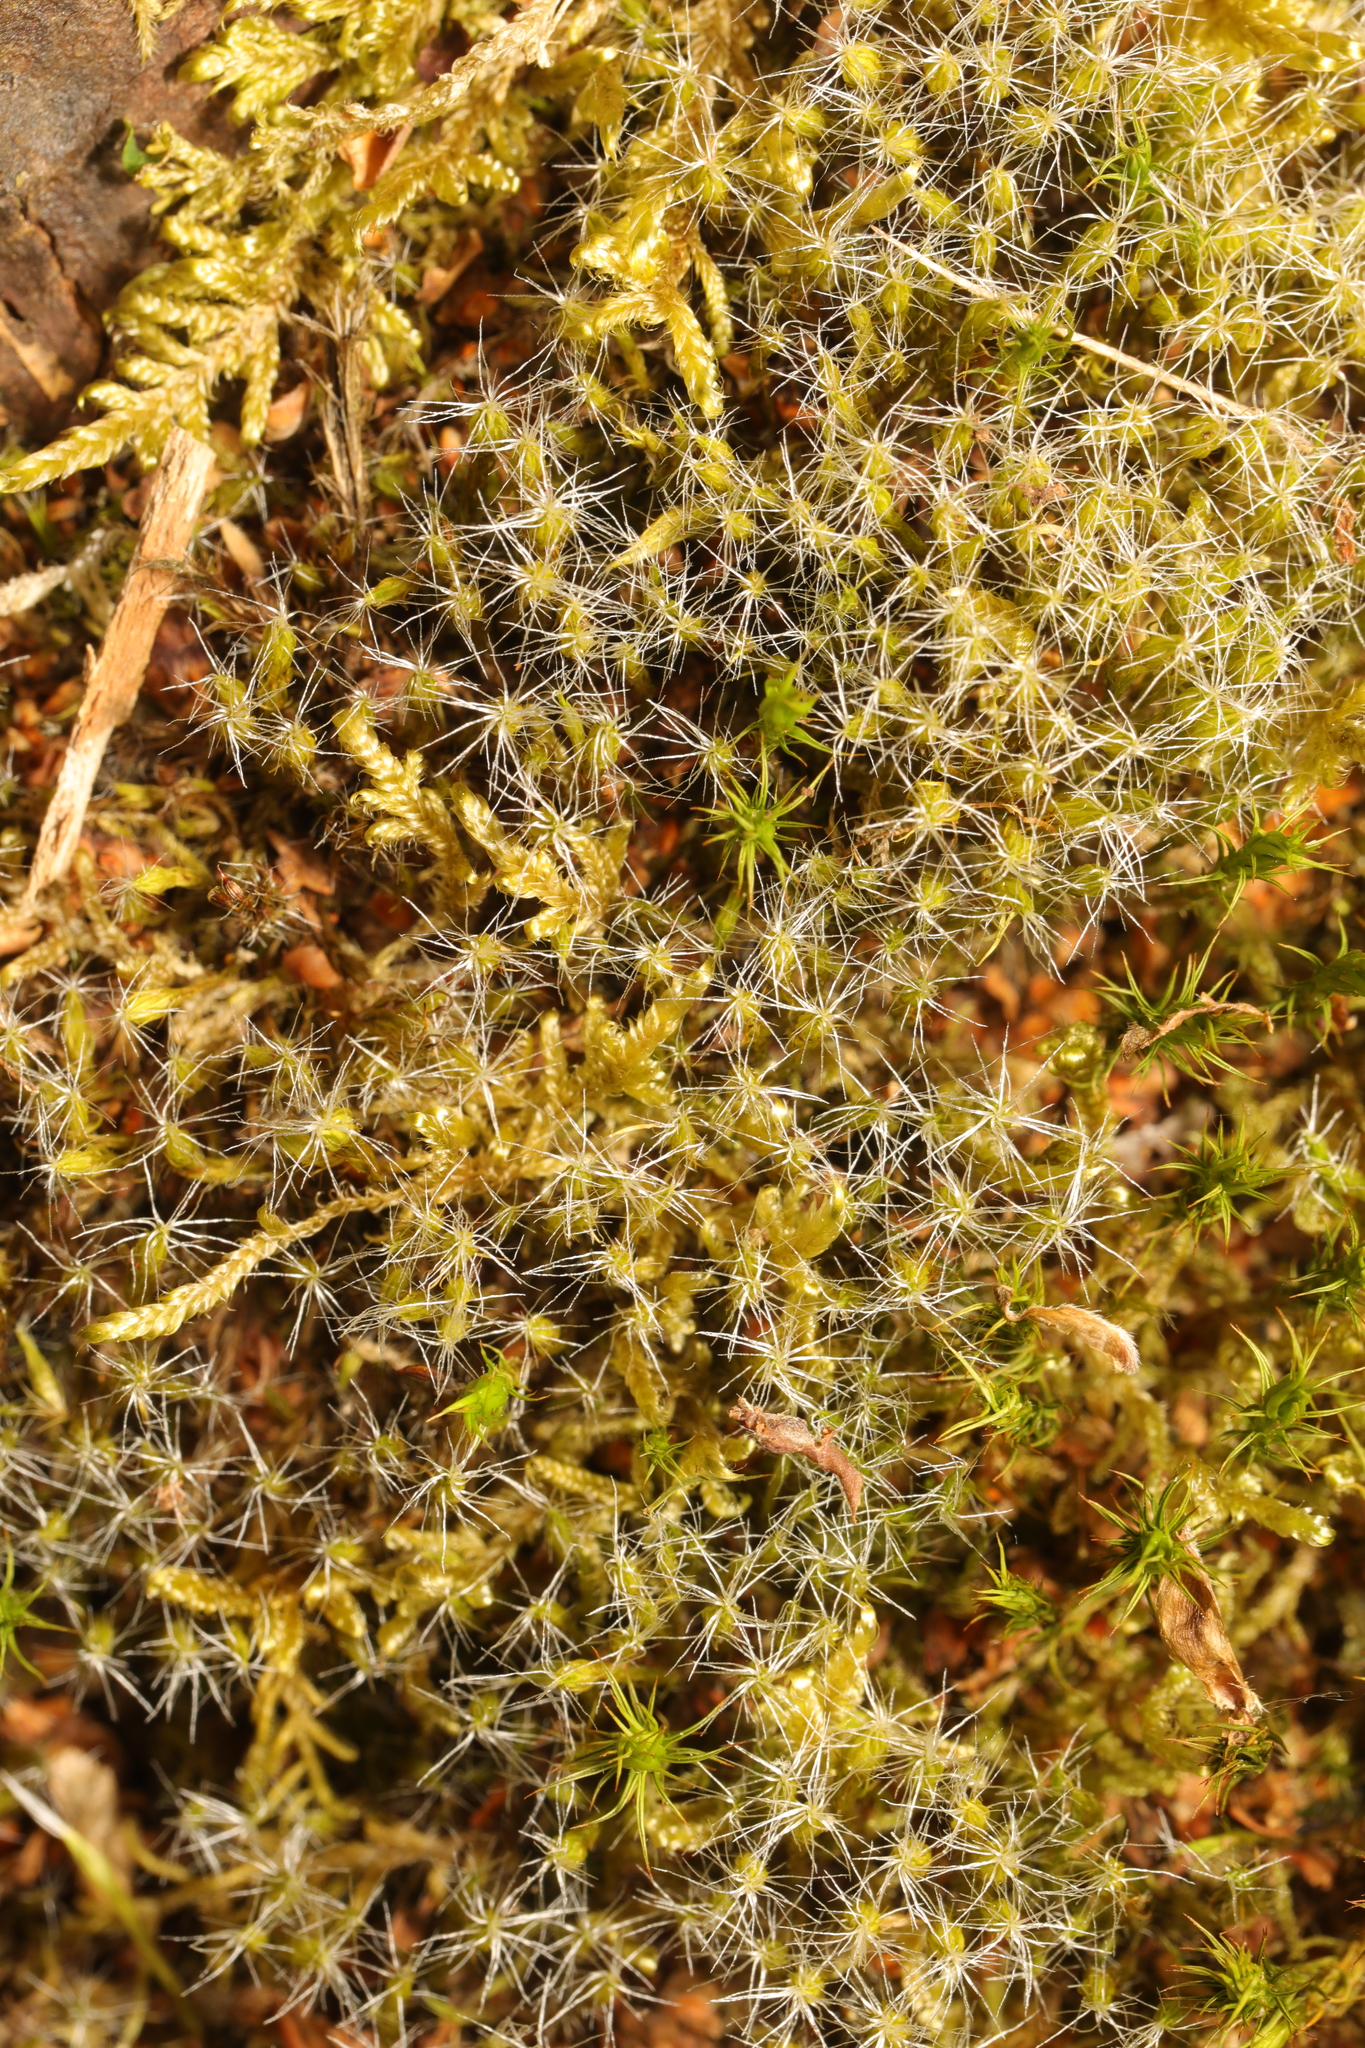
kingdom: Plantae
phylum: Bryophyta
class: Bryopsida
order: Dicranales
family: Leucobryaceae
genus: Campylopus
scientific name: Campylopus introflexus
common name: Heath star moss
